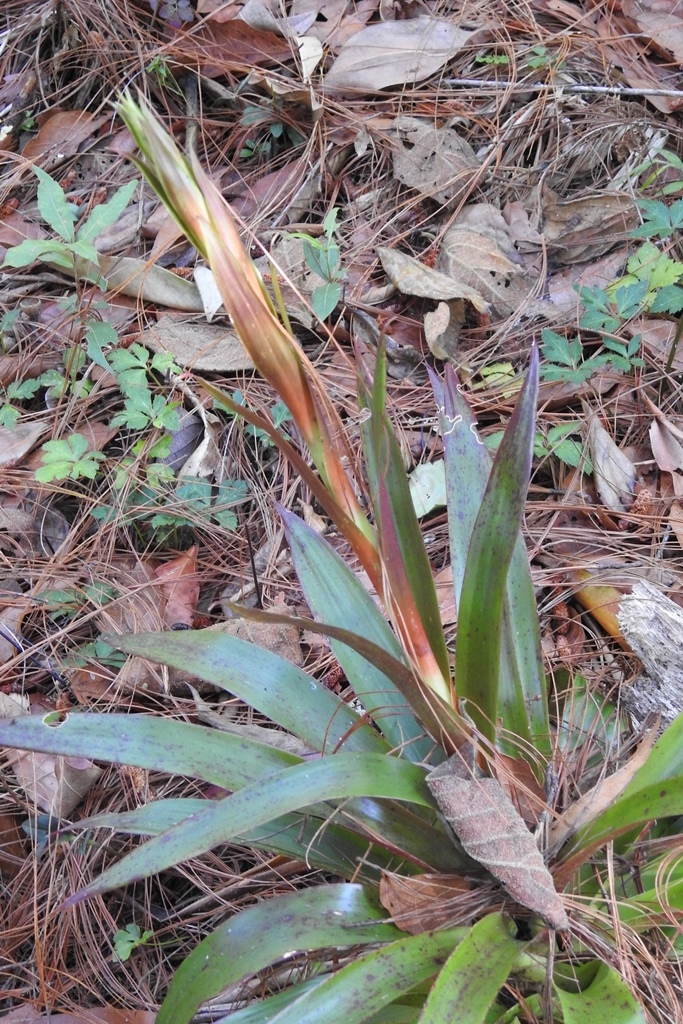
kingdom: Plantae
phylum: Tracheophyta
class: Liliopsida
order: Poales
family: Bromeliaceae
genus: Tillandsia
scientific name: Tillandsia guatemalensis
